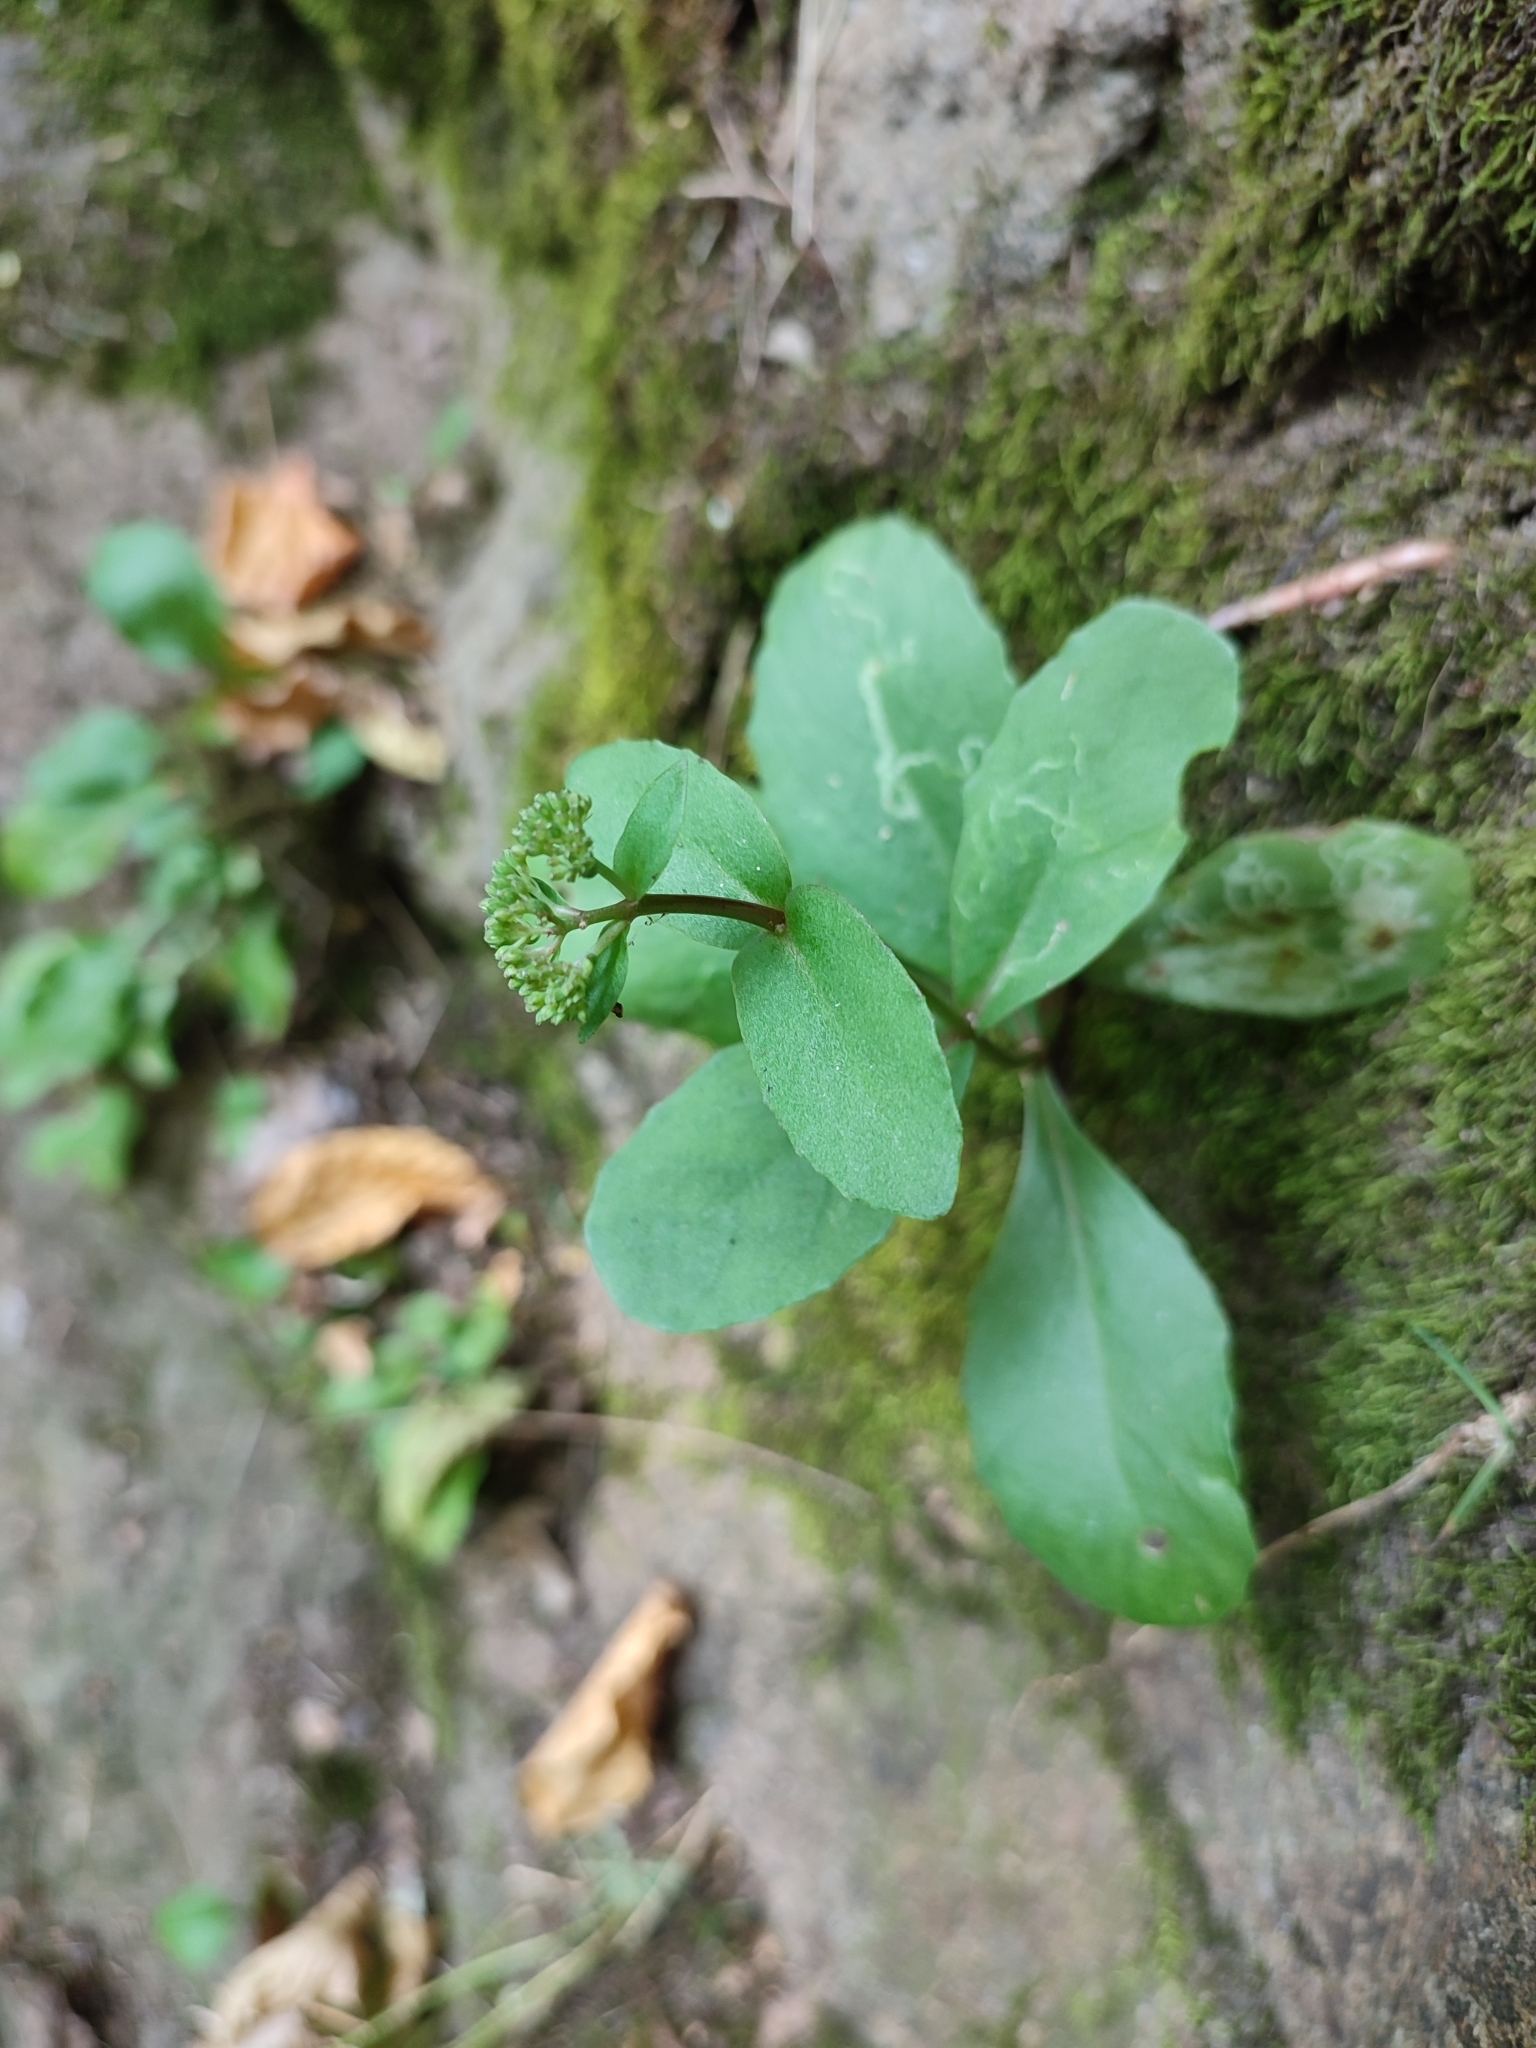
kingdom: Plantae
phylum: Tracheophyta
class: Magnoliopsida
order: Saxifragales
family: Crassulaceae
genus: Hylotelephium
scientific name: Hylotelephium maximum
